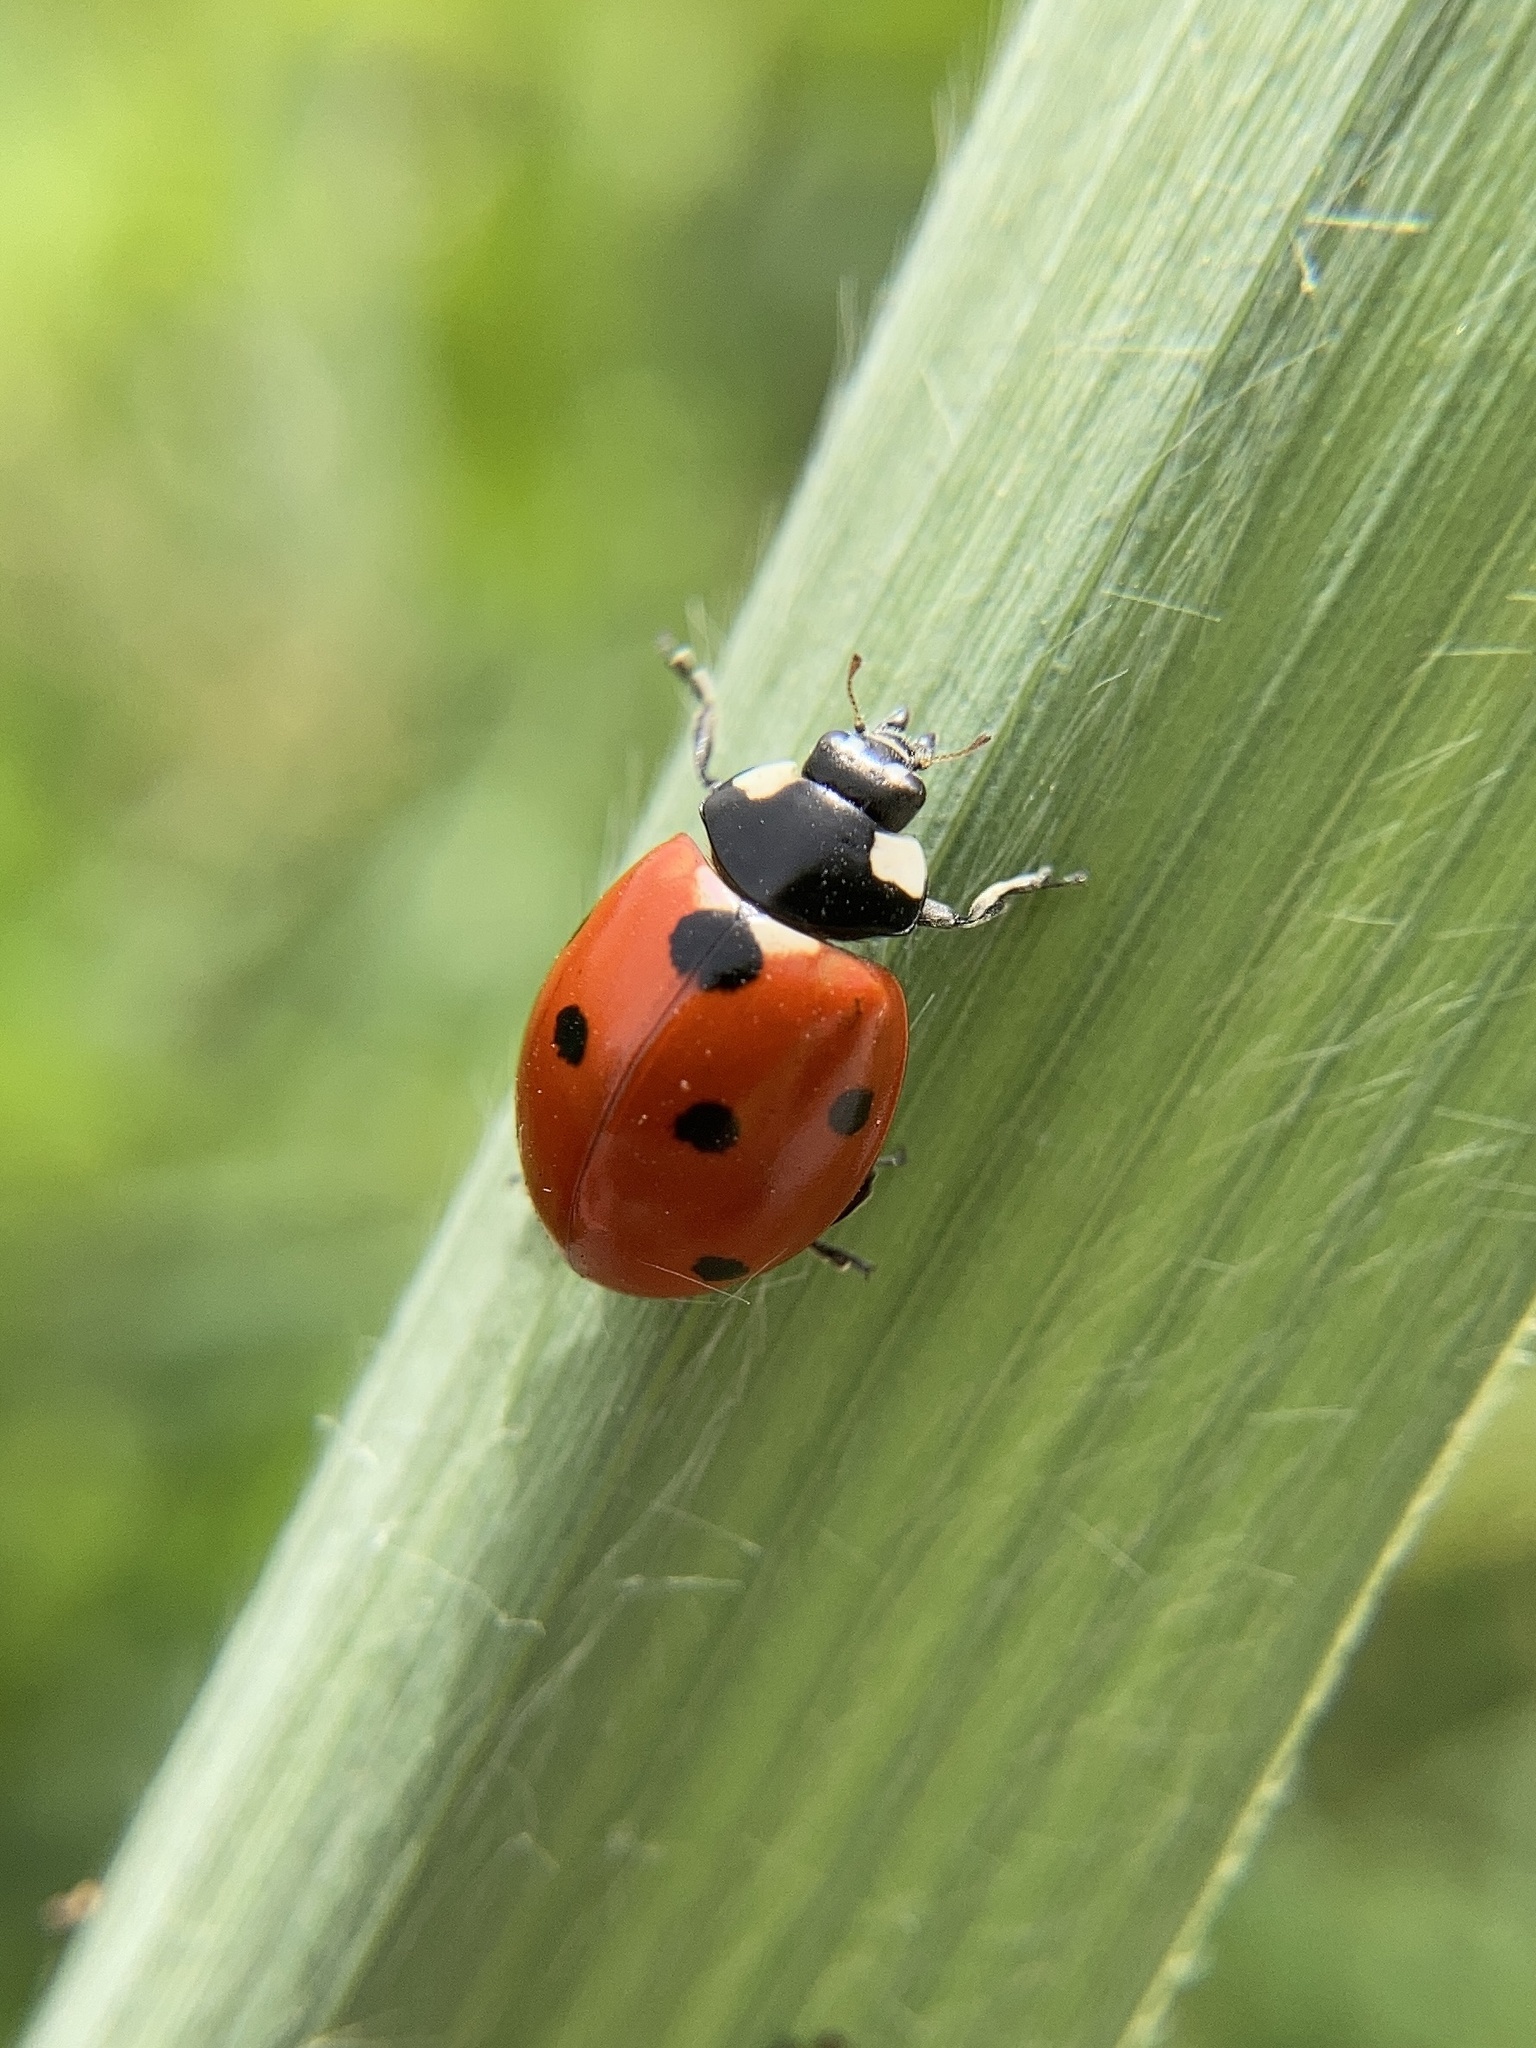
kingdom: Animalia
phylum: Arthropoda
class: Insecta
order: Coleoptera
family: Coccinellidae
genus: Coccinella
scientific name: Coccinella septempunctata
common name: Sevenspotted lady beetle
